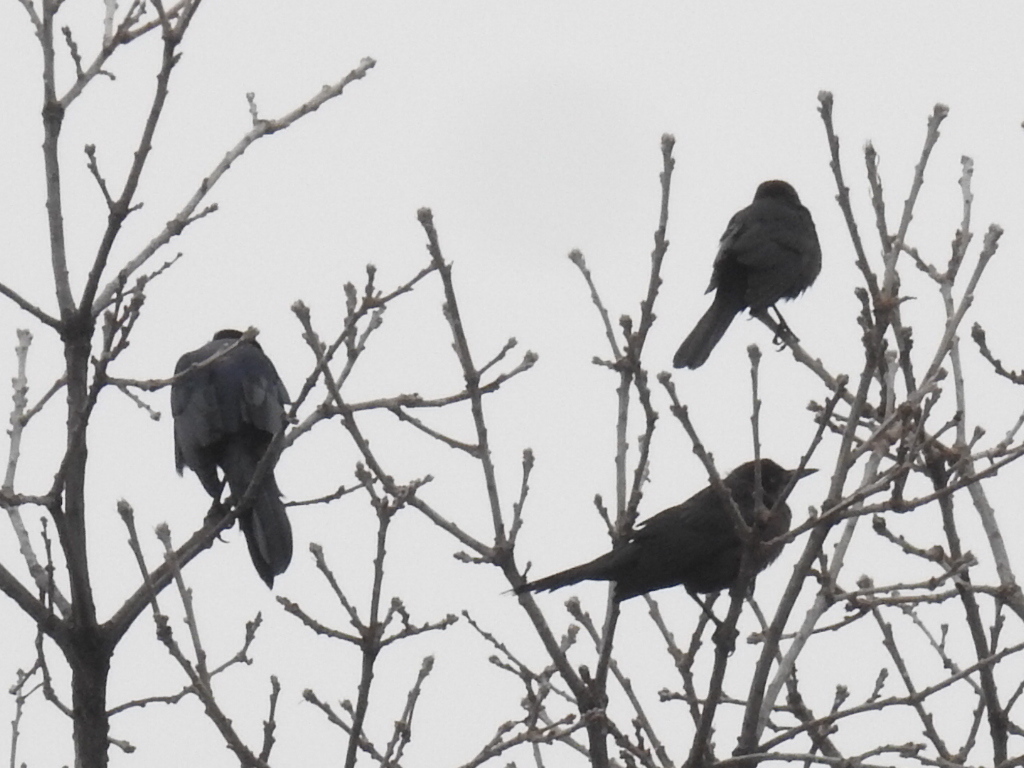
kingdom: Animalia
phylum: Chordata
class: Aves
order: Passeriformes
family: Icteridae
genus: Quiscalus
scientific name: Quiscalus mexicanus
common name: Great-tailed grackle
